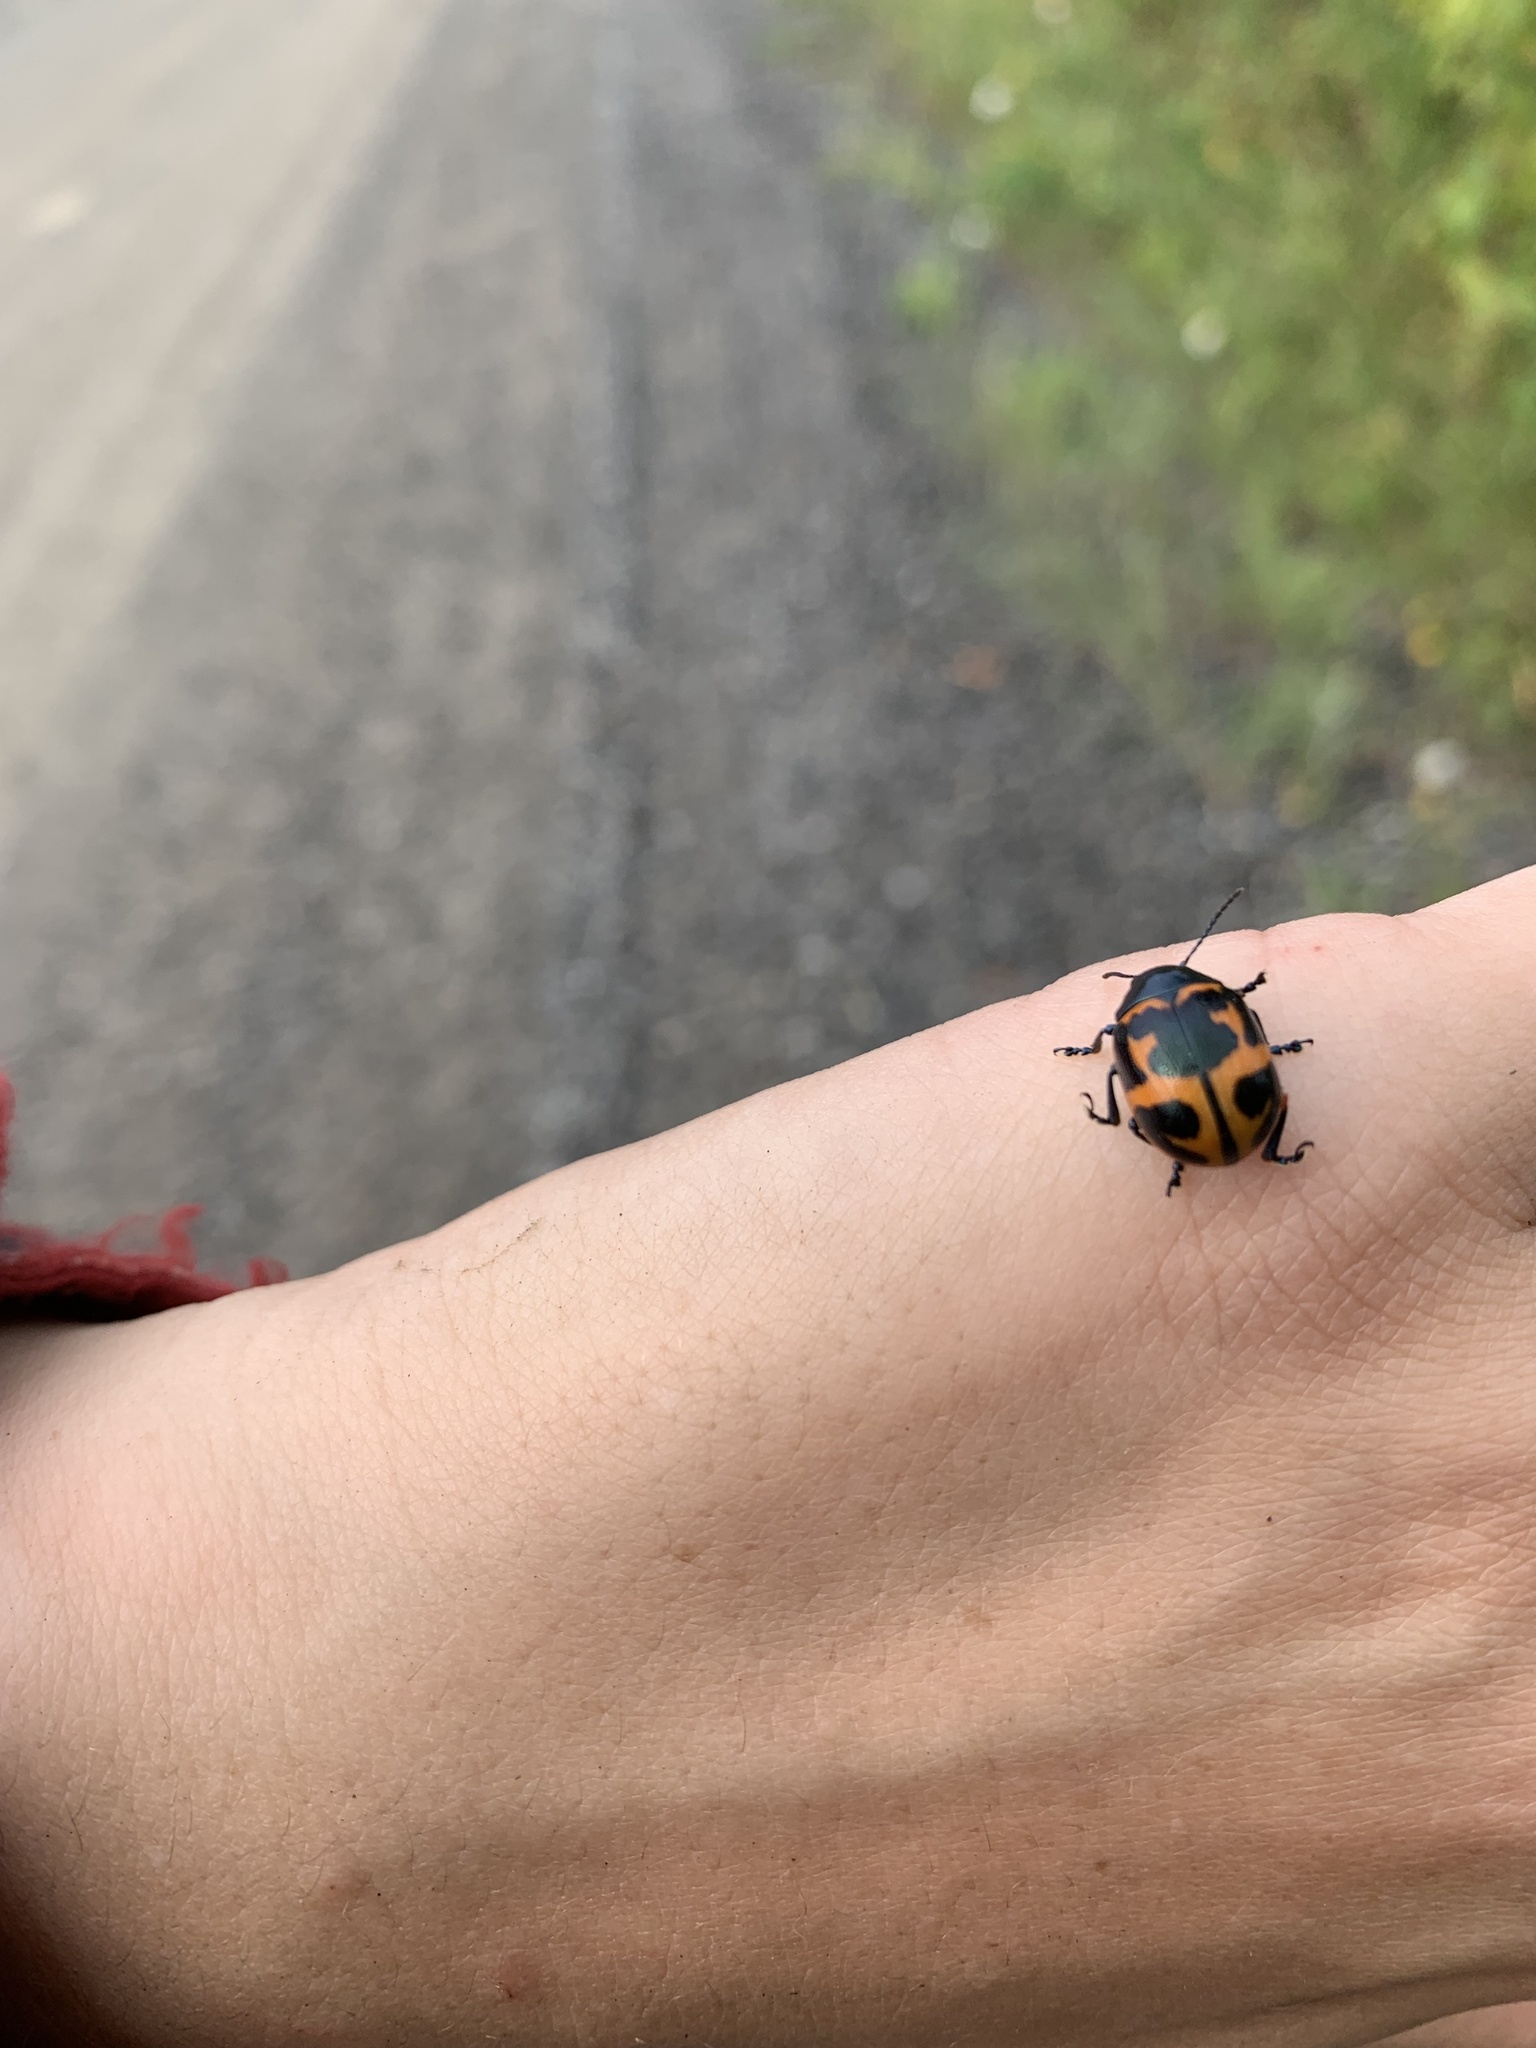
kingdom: Animalia
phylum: Arthropoda
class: Insecta
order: Coleoptera
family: Chrysomelidae
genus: Labidomera
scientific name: Labidomera clivicollis
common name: Swamp milkweed leaf beetle
